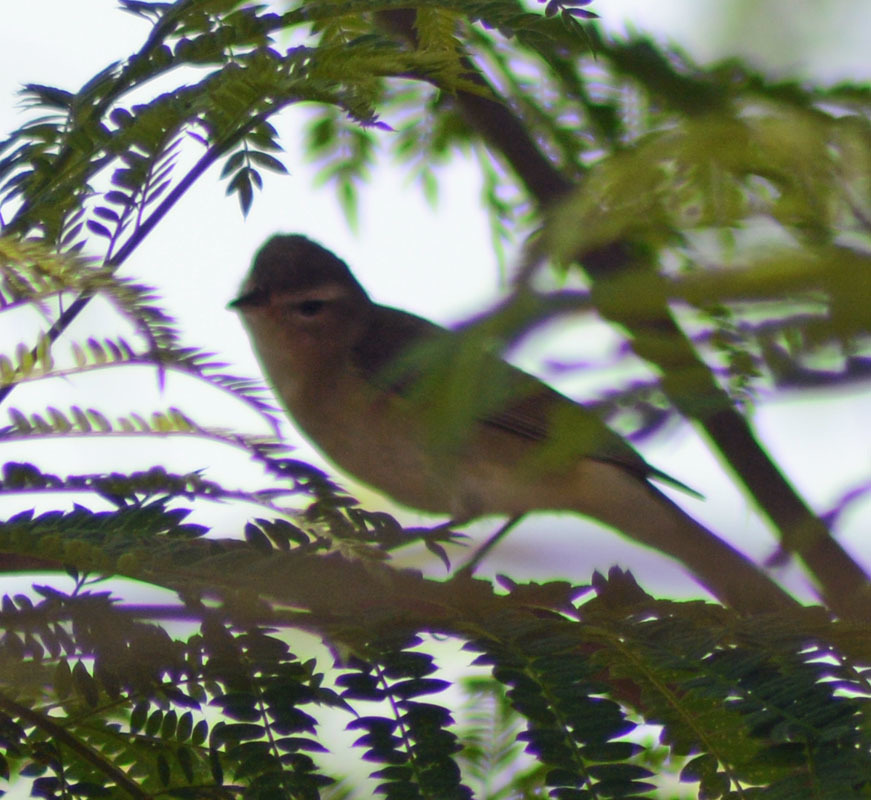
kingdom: Animalia
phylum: Chordata
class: Aves
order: Passeriformes
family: Vireonidae
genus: Vireo
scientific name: Vireo gilvus
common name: Warbling vireo
